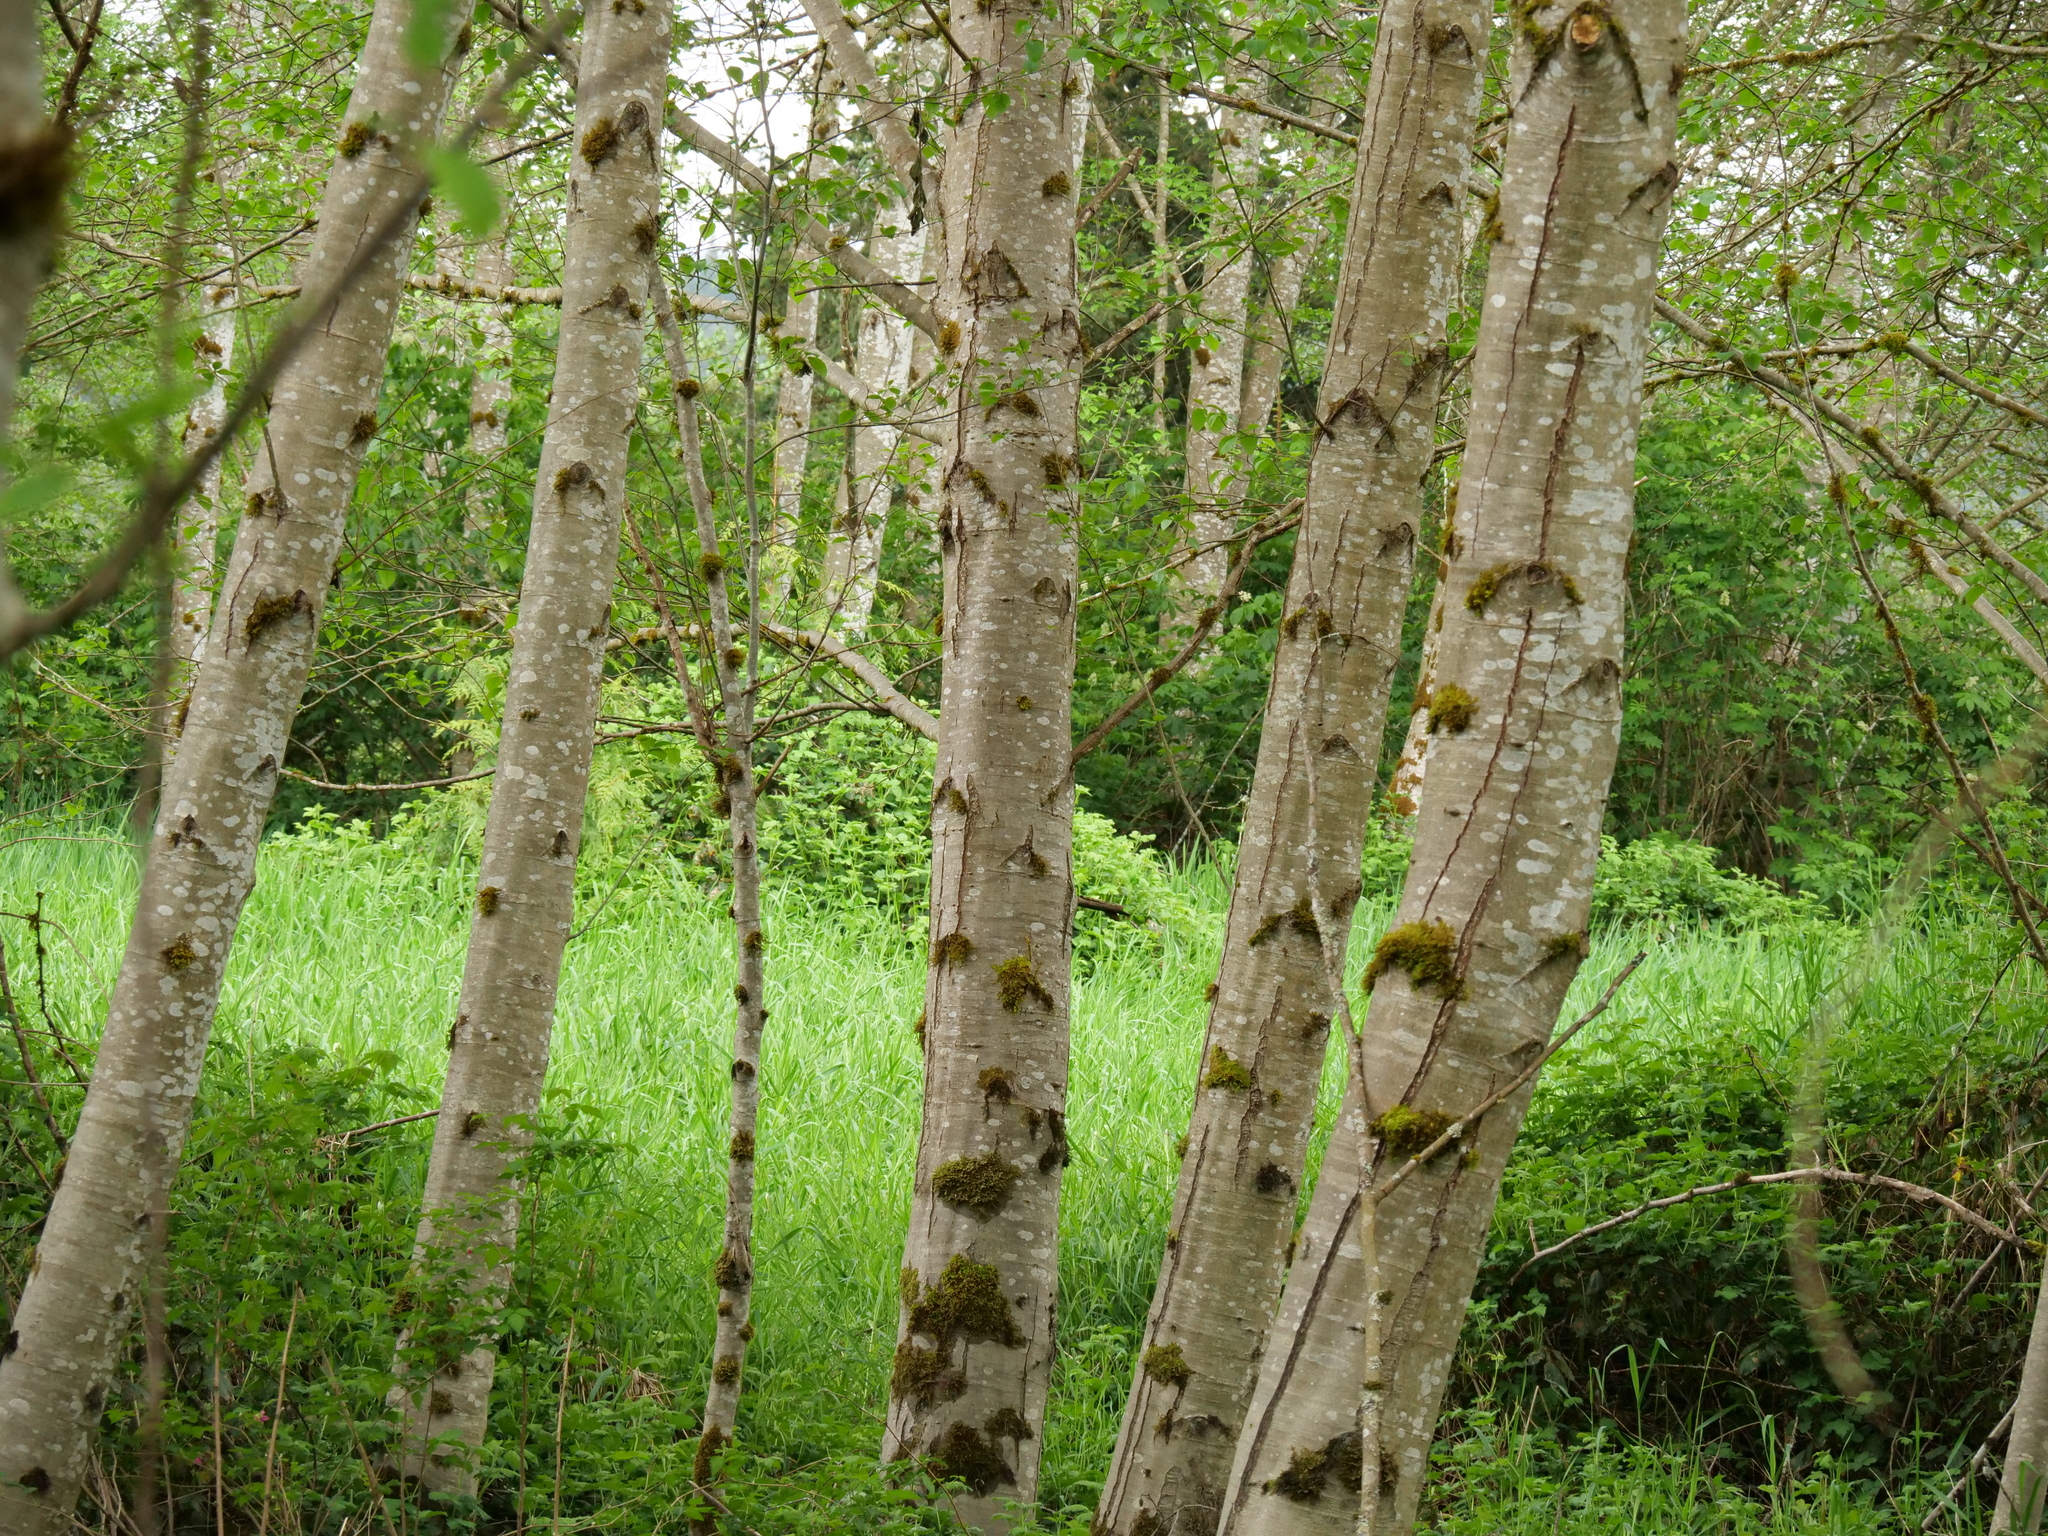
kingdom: Plantae
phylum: Tracheophyta
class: Magnoliopsida
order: Fagales
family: Betulaceae
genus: Alnus
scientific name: Alnus rubra
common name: Red alder
